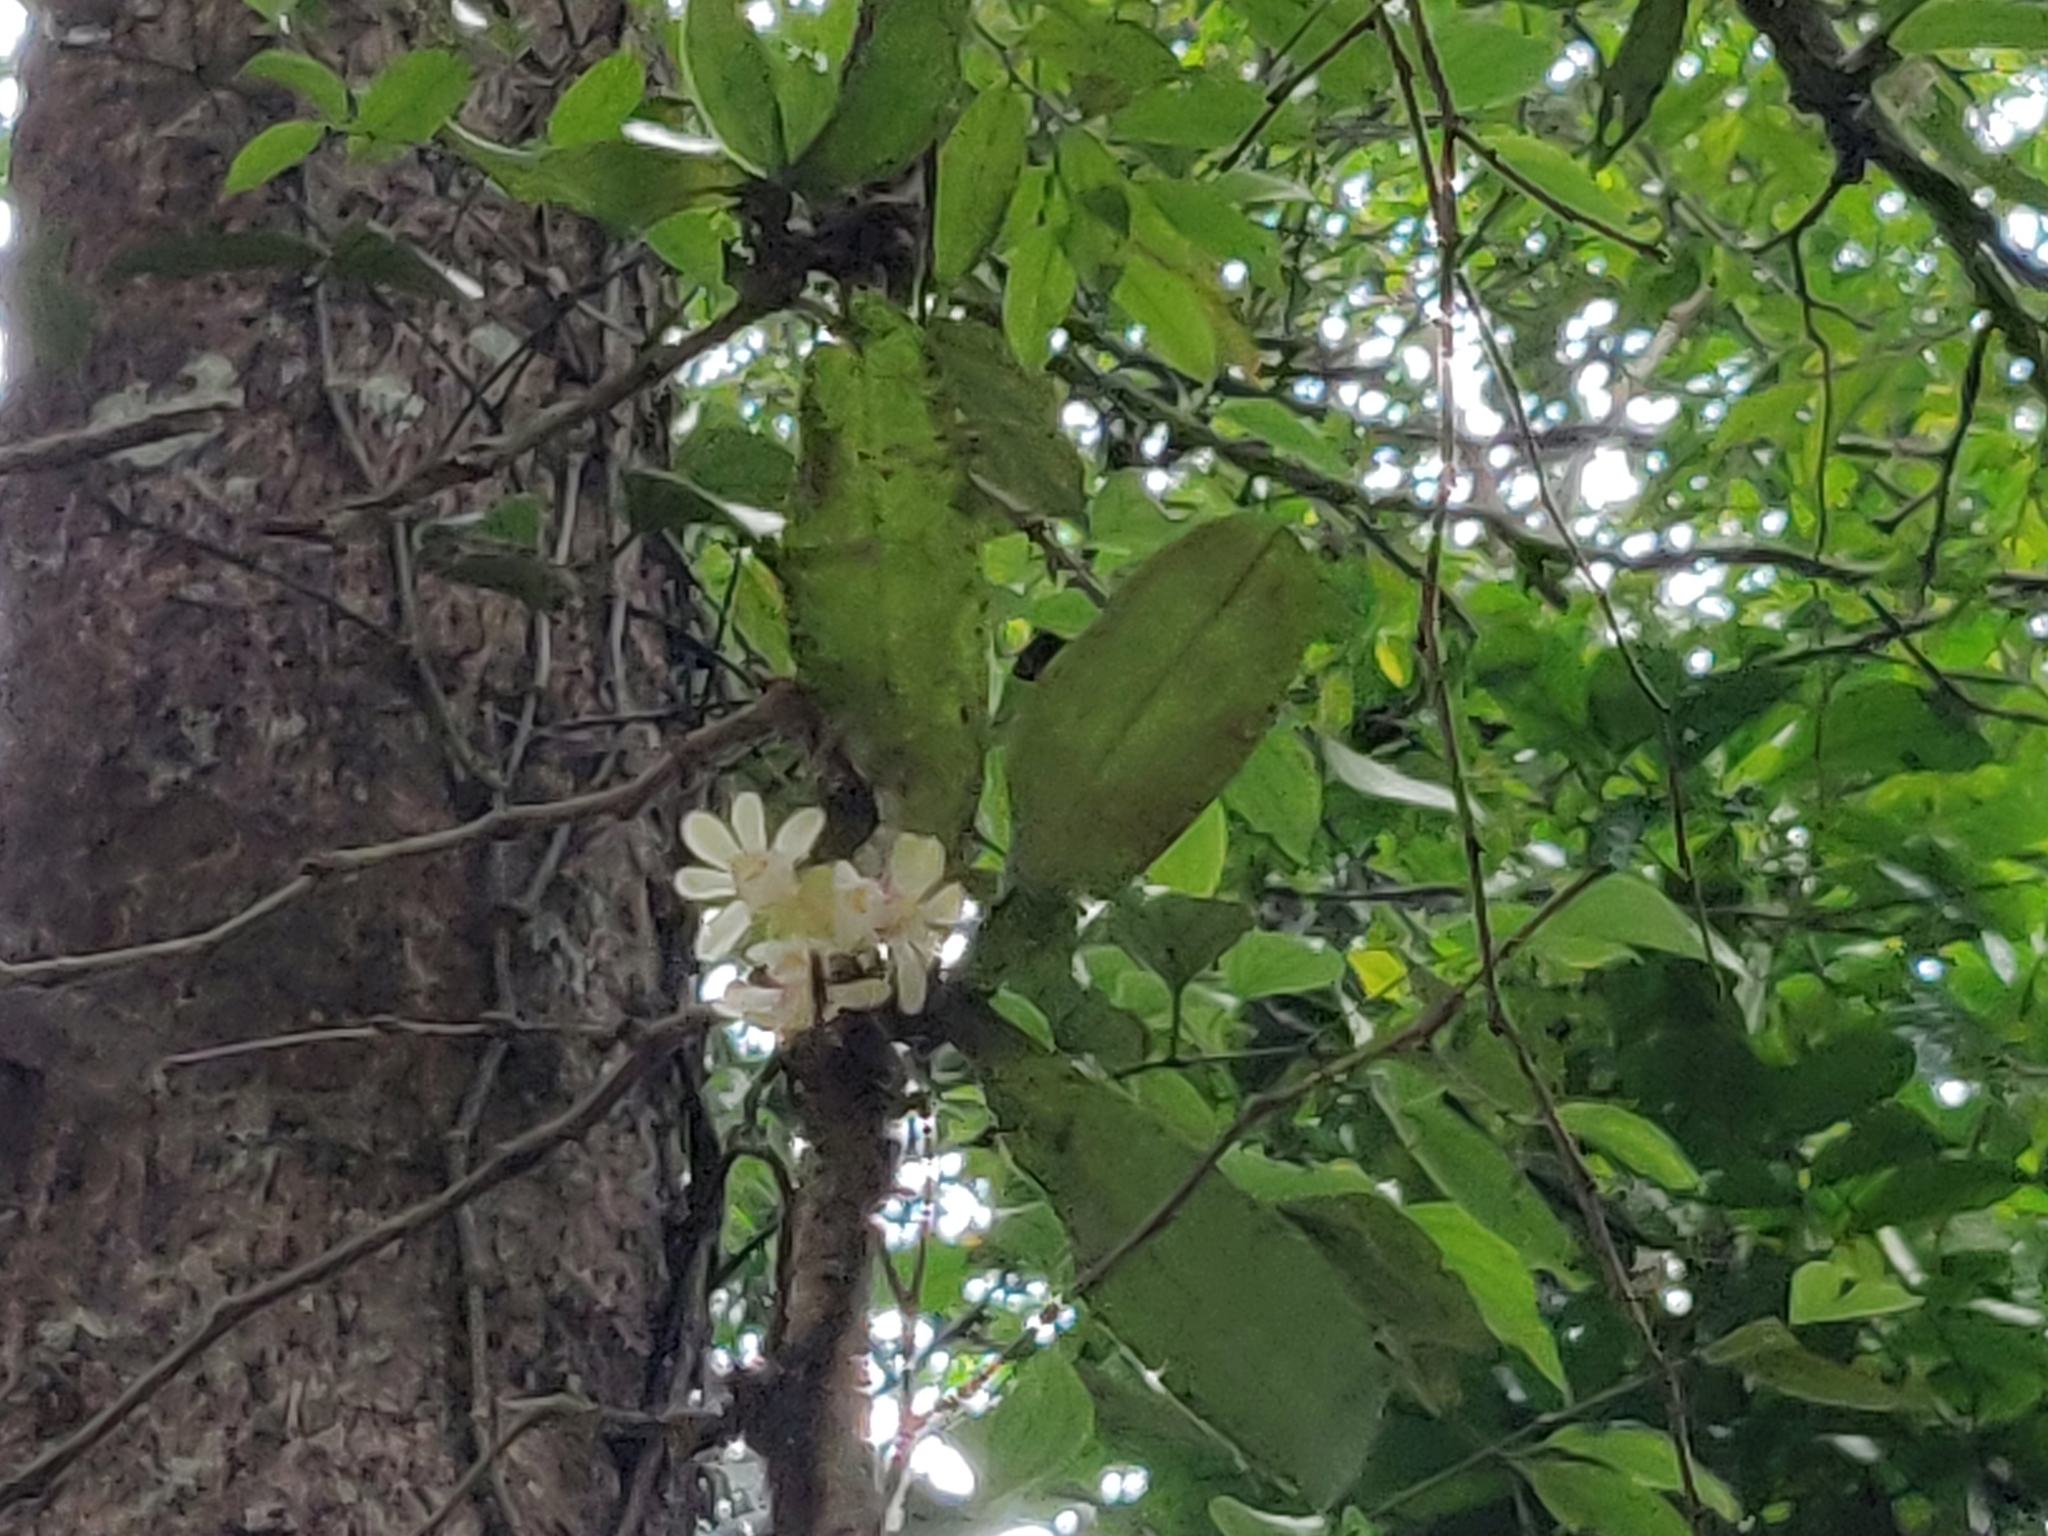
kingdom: Plantae
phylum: Tracheophyta
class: Liliopsida
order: Asparagales
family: Orchidaceae
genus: Gastrochilus
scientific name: Gastrochilus flabelliformis
